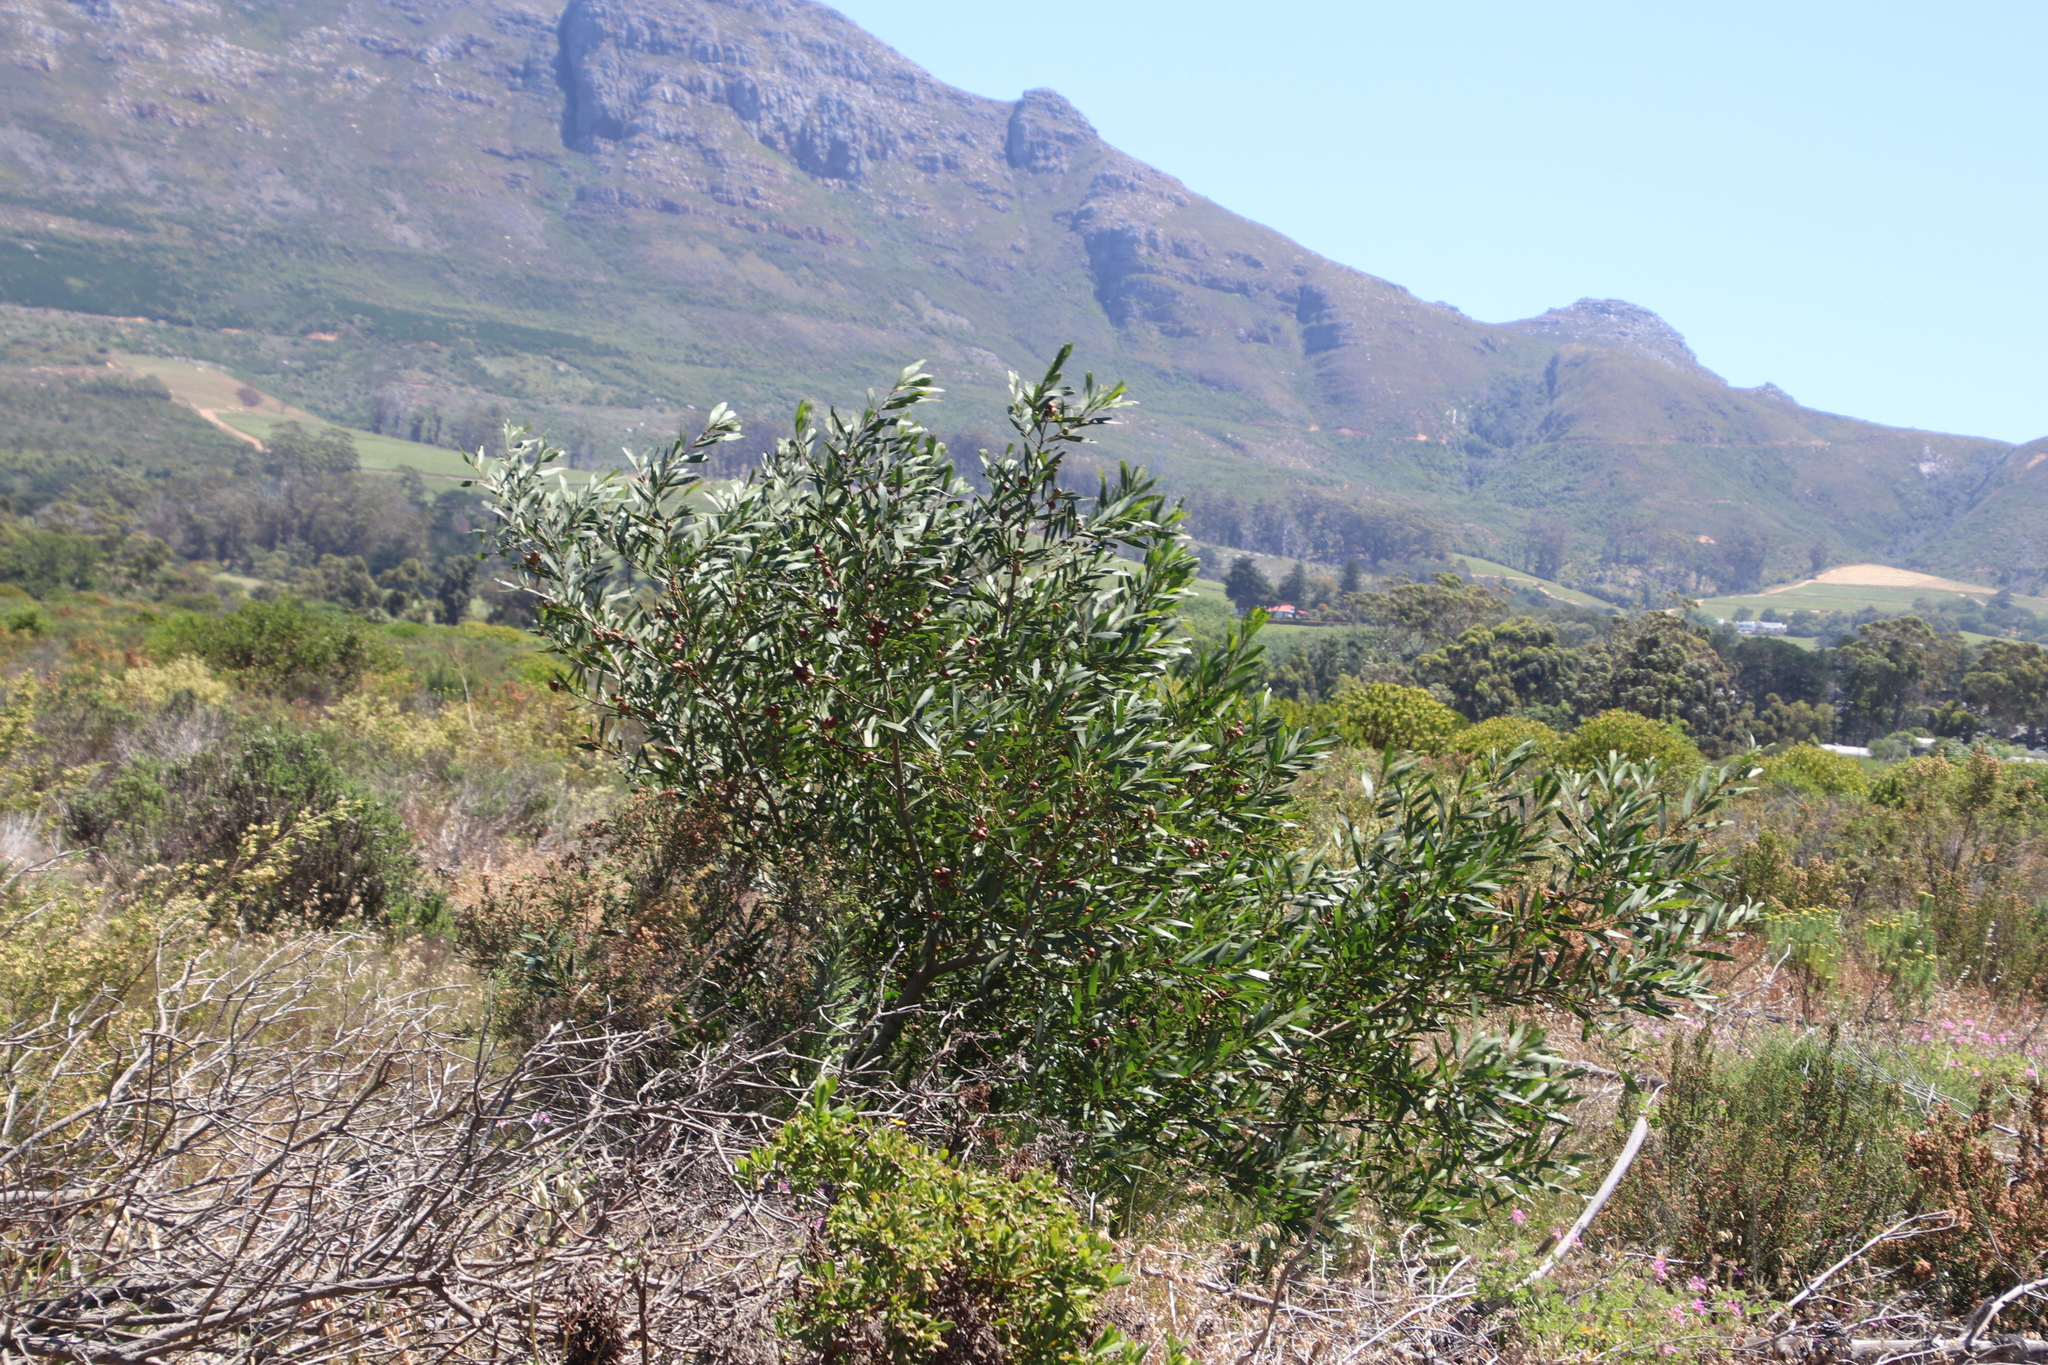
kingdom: Plantae
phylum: Tracheophyta
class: Magnoliopsida
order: Fabales
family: Fabaceae
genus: Acacia
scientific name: Acacia longifolia
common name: Sydney golden wattle
